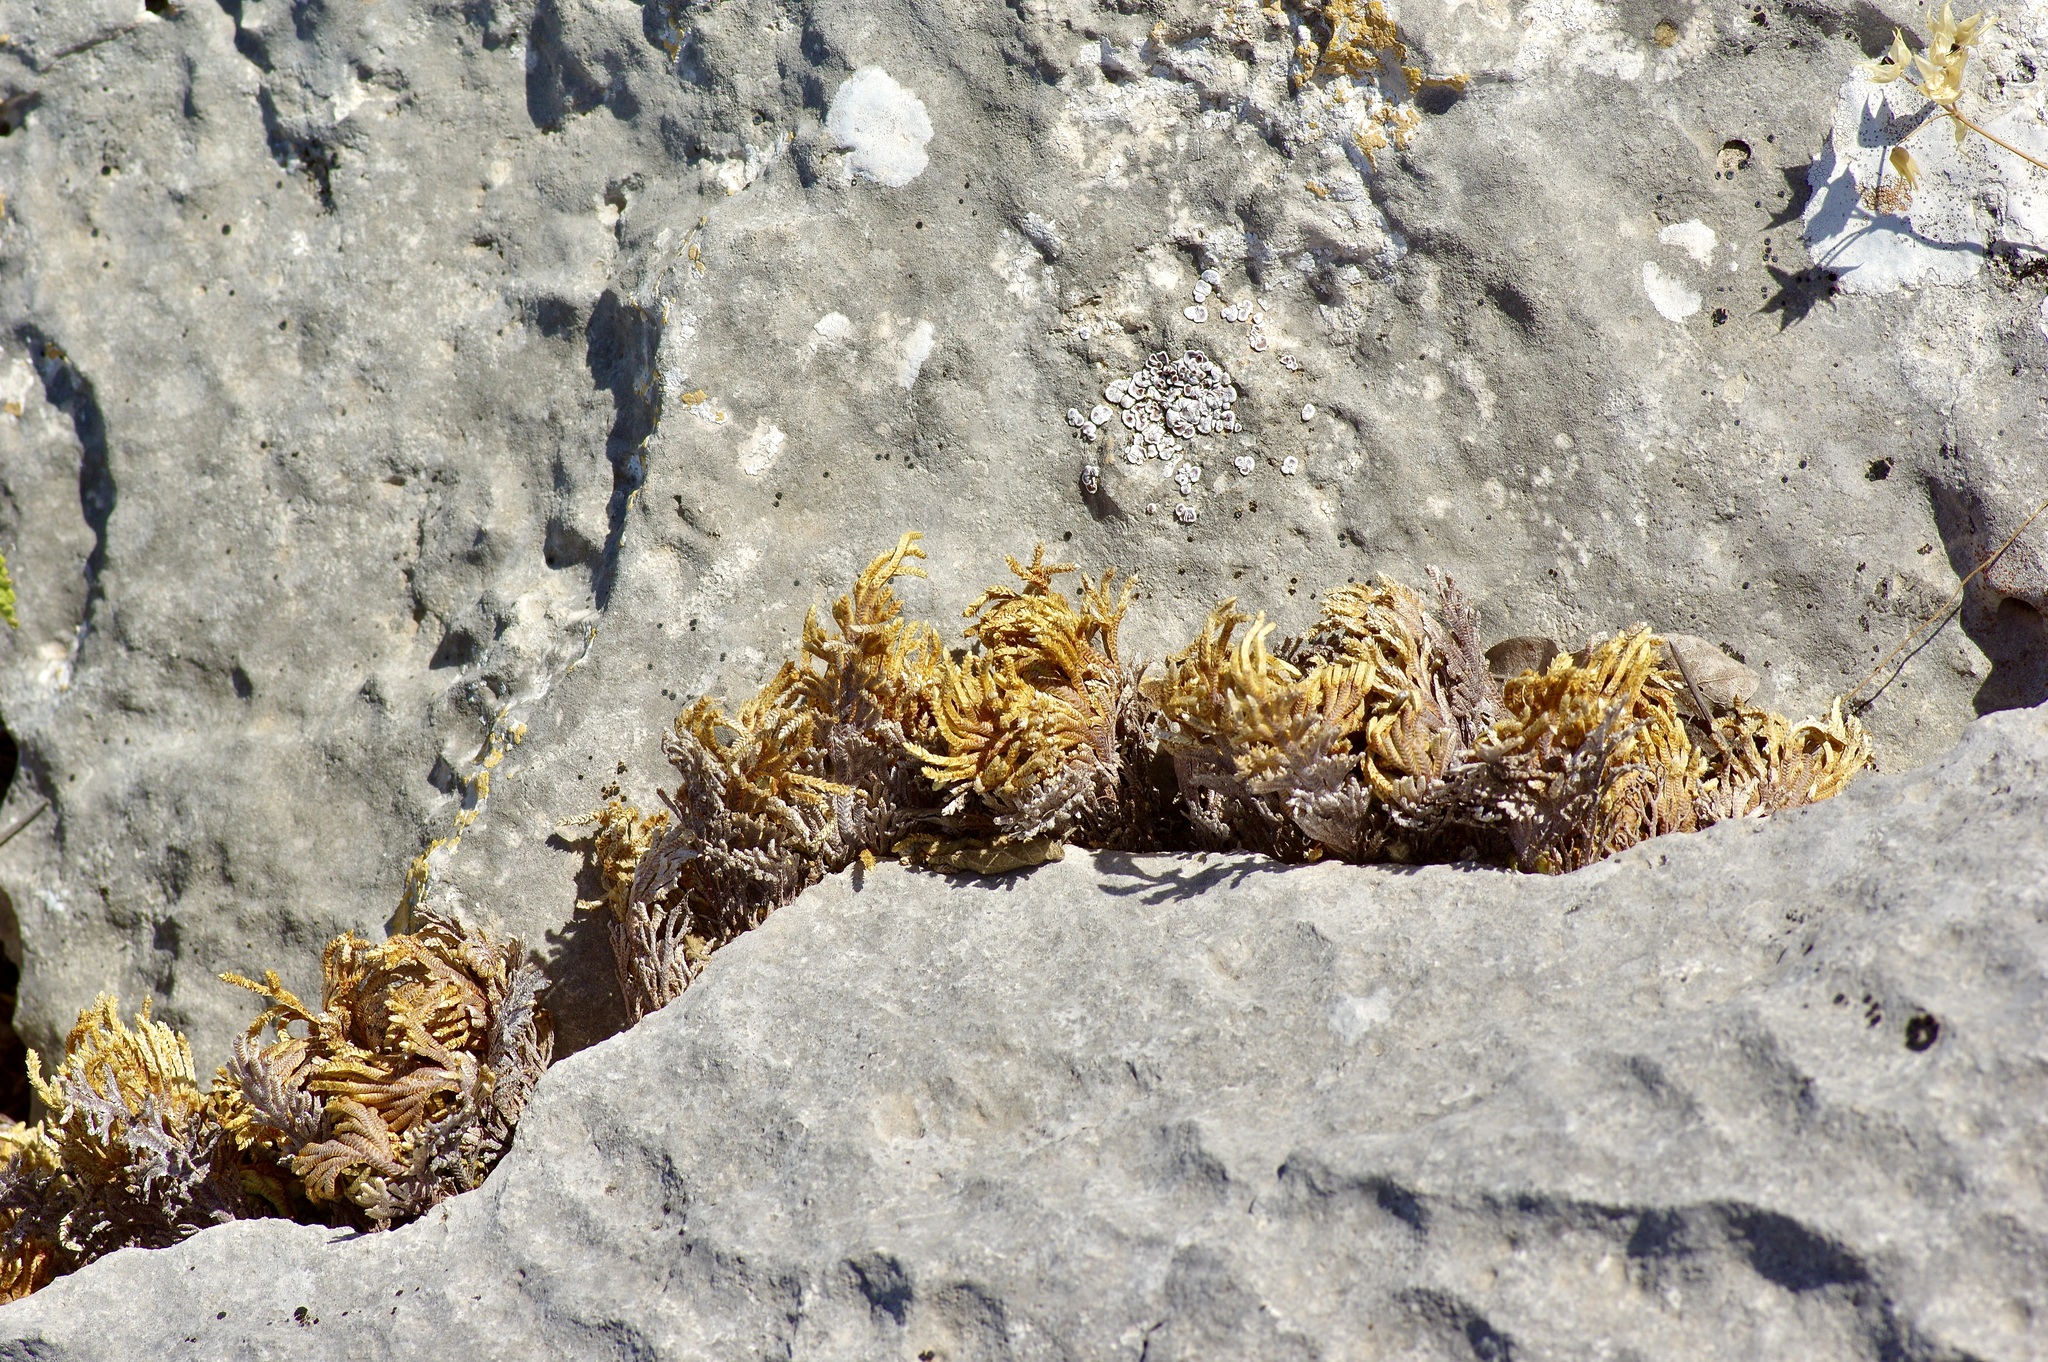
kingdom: Plantae
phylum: Tracheophyta
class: Lycopodiopsida
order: Selaginellales
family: Selaginellaceae
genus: Selaginella
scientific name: Selaginella lepidophylla
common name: Rose-of-jericho
